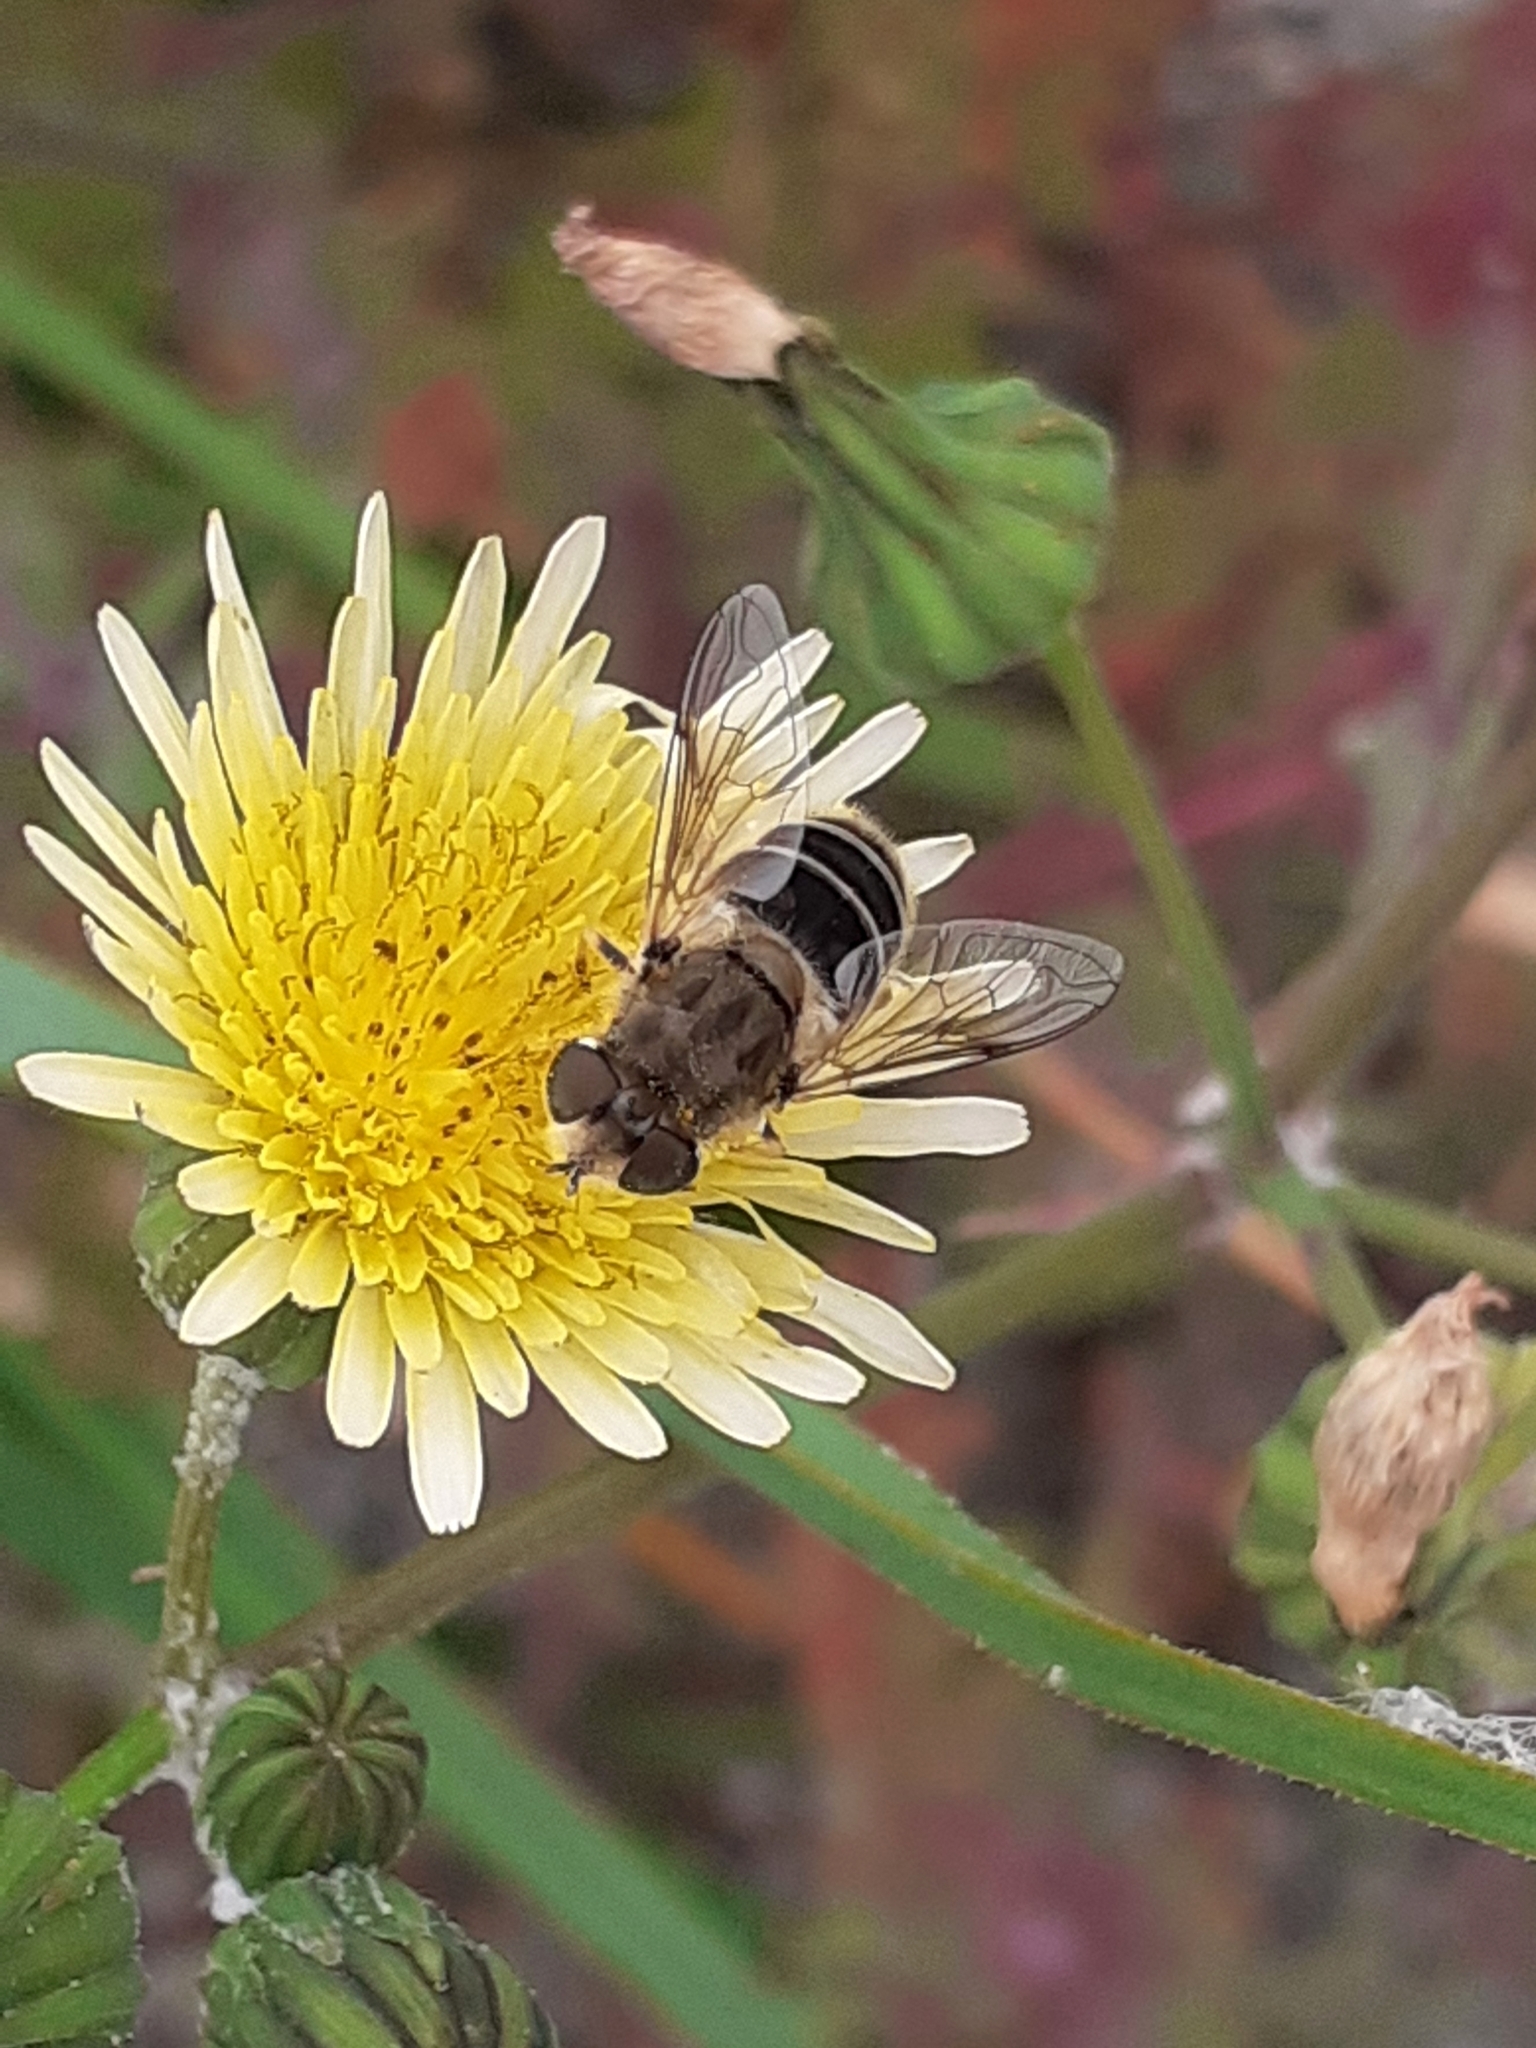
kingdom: Animalia
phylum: Arthropoda
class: Insecta
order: Diptera
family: Syrphidae
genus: Eristalis
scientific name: Eristalis arbustorum
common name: Hover fly
